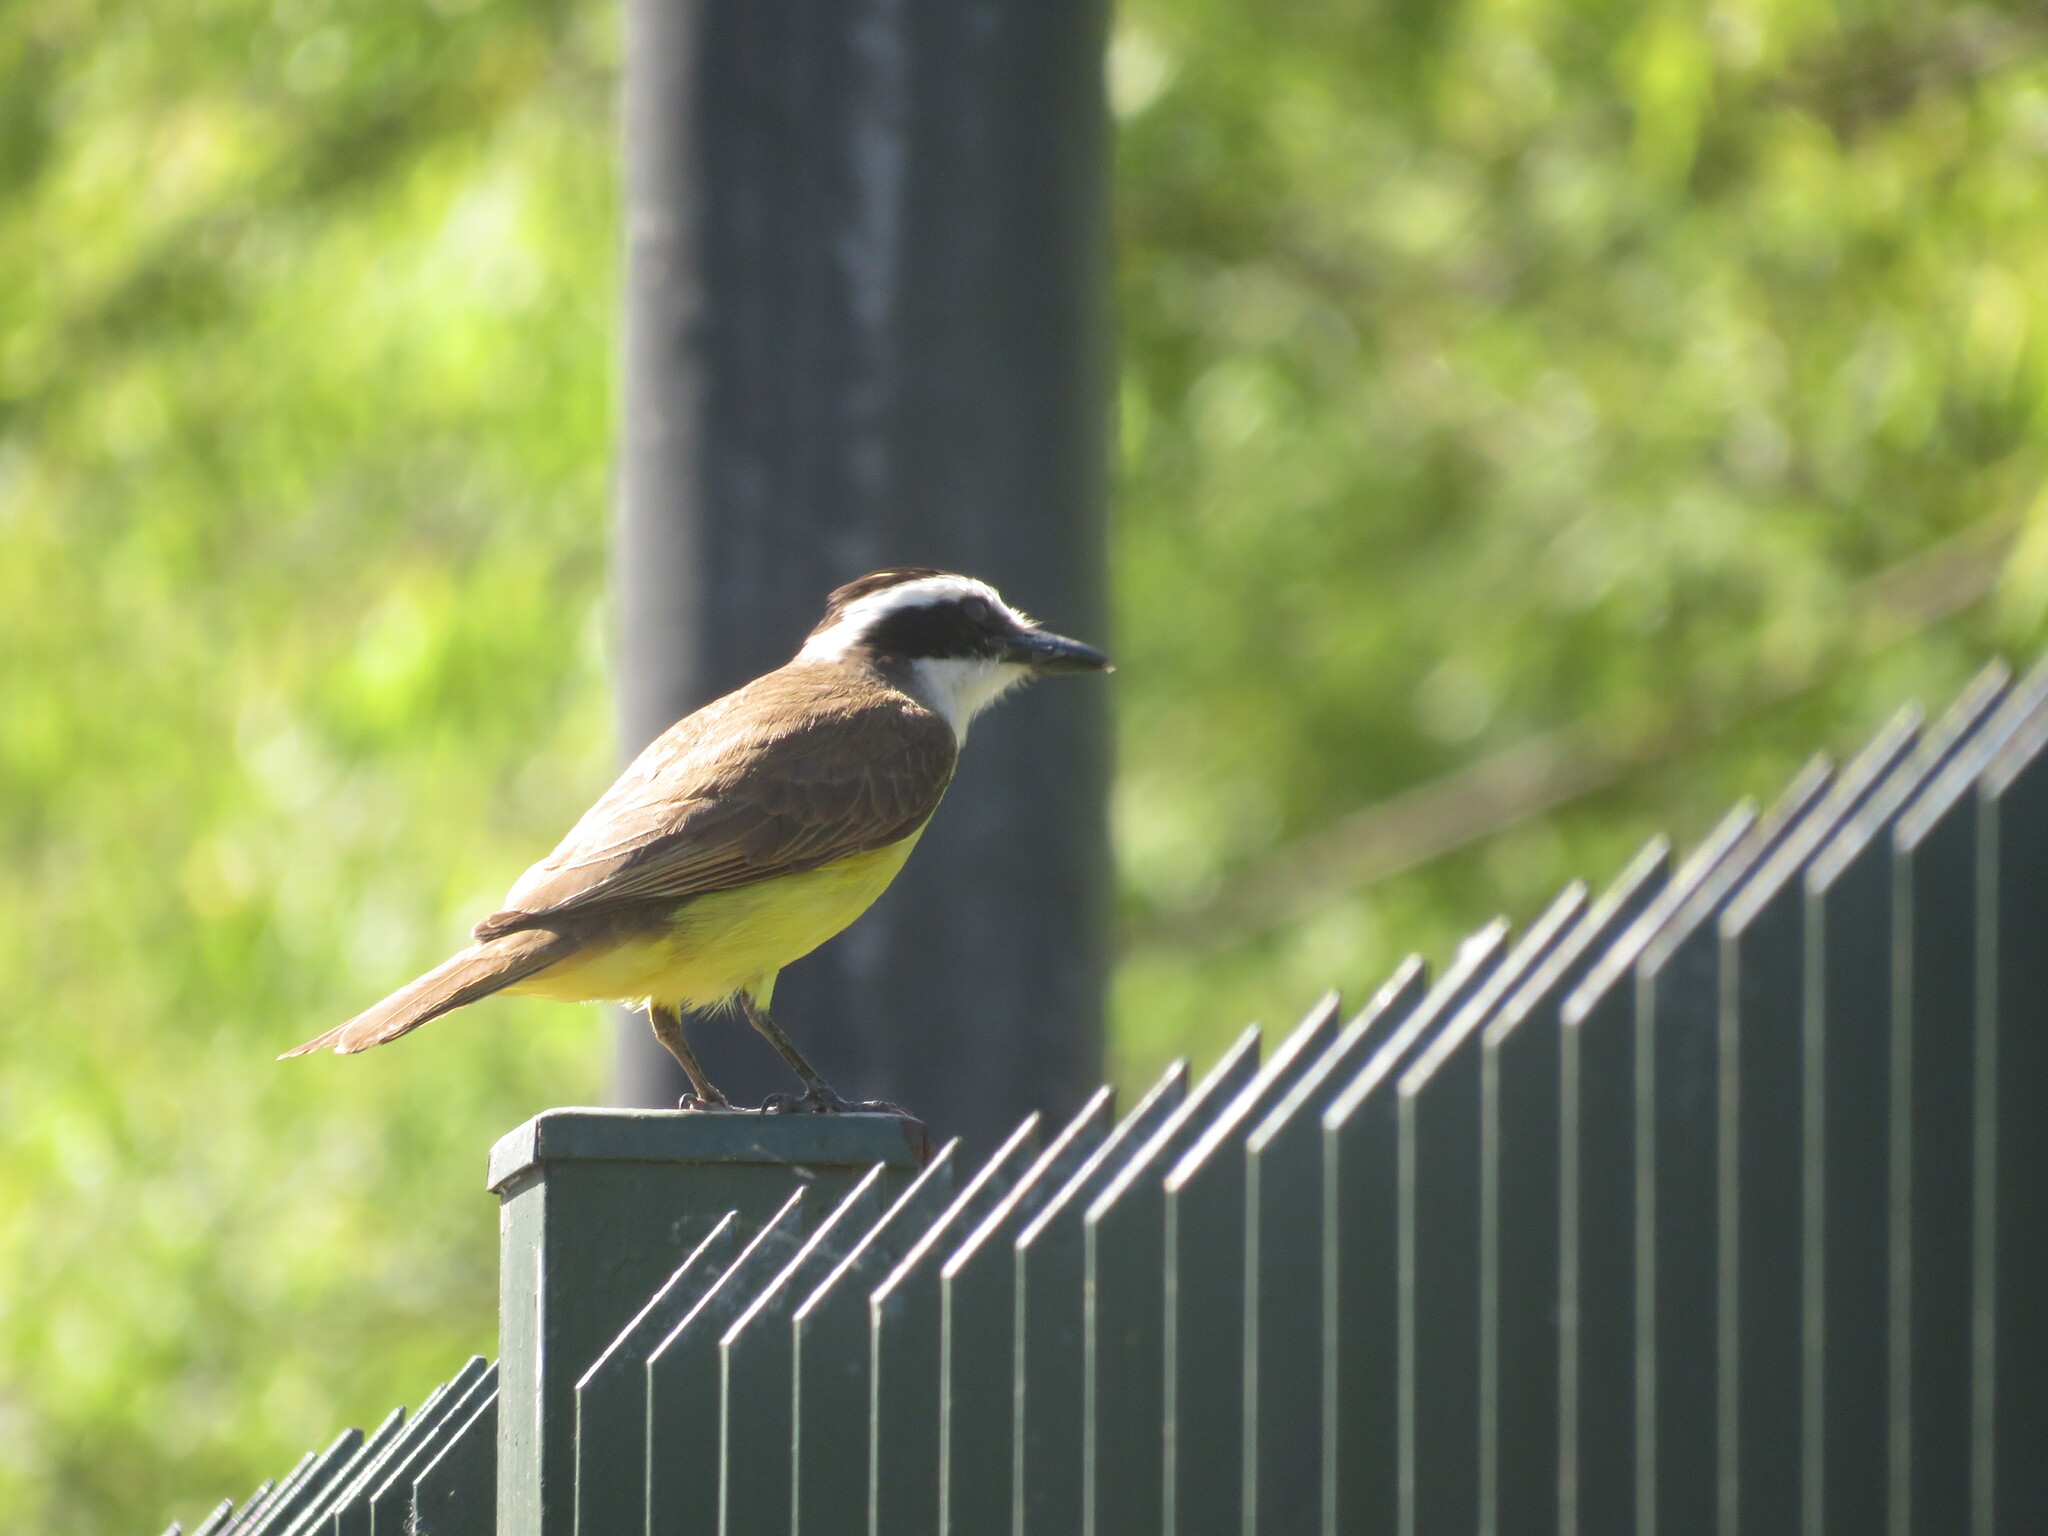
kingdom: Animalia
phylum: Chordata
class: Aves
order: Passeriformes
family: Tyrannidae
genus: Pitangus
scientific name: Pitangus sulphuratus
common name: Great kiskadee
